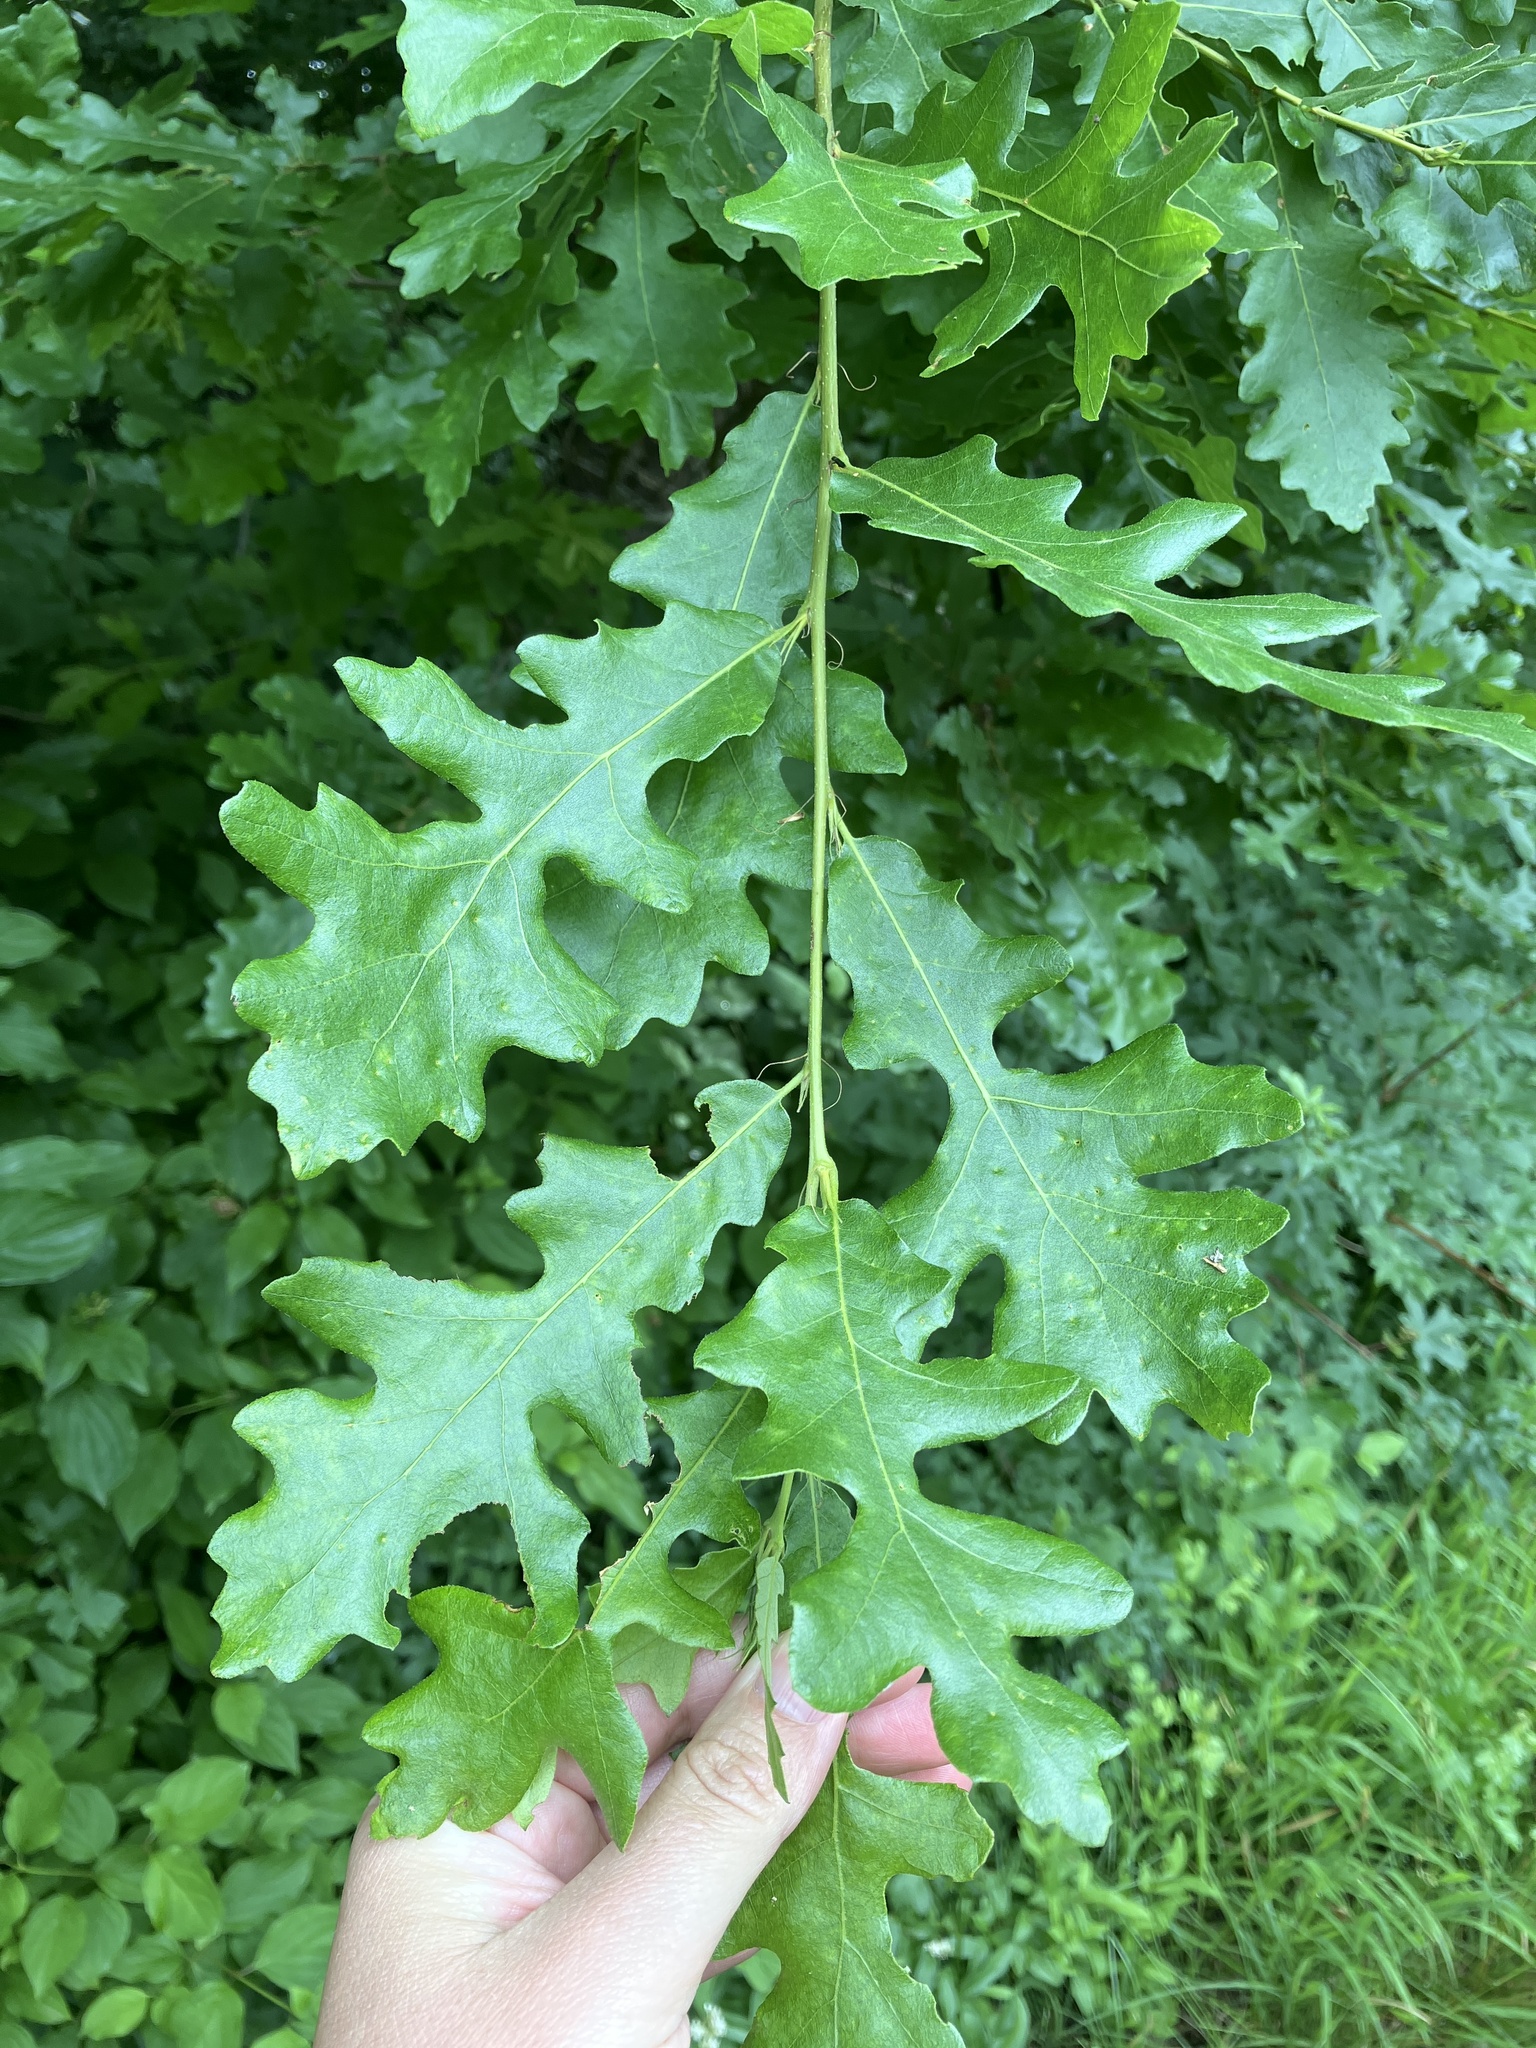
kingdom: Plantae
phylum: Tracheophyta
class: Magnoliopsida
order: Fagales
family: Fagaceae
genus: Quercus
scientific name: Quercus cerris
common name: Turkey oak
